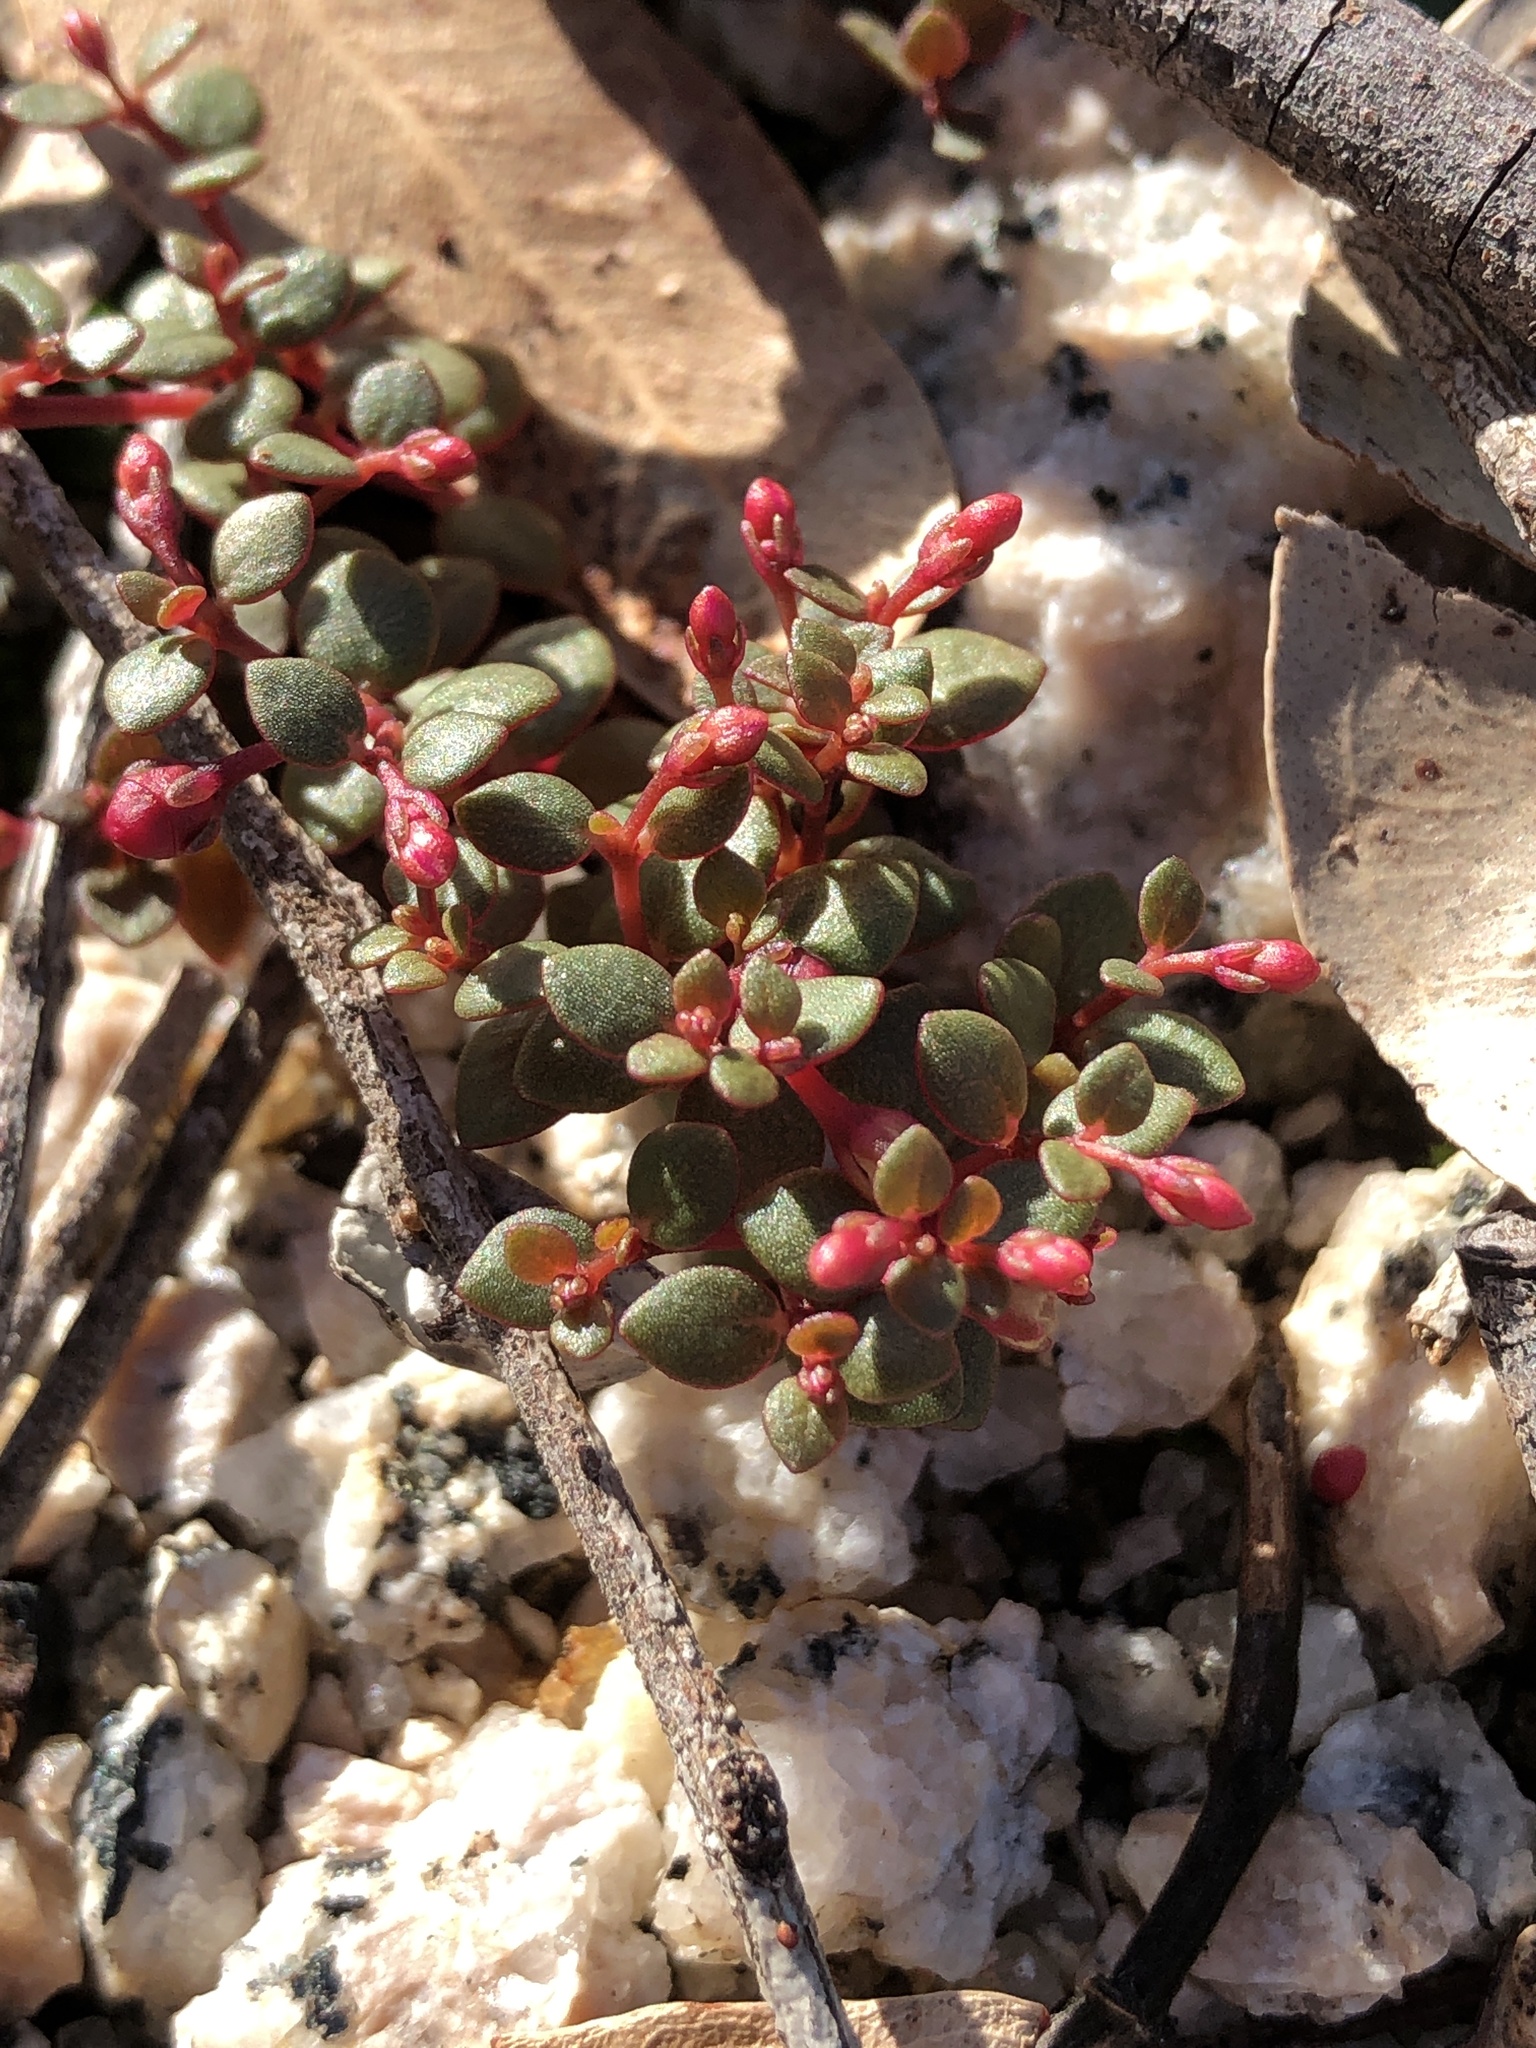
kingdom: Plantae
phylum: Tracheophyta
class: Magnoliopsida
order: Caryophyllales
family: Portulacaceae
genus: Portulaca
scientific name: Portulaca bicolor
